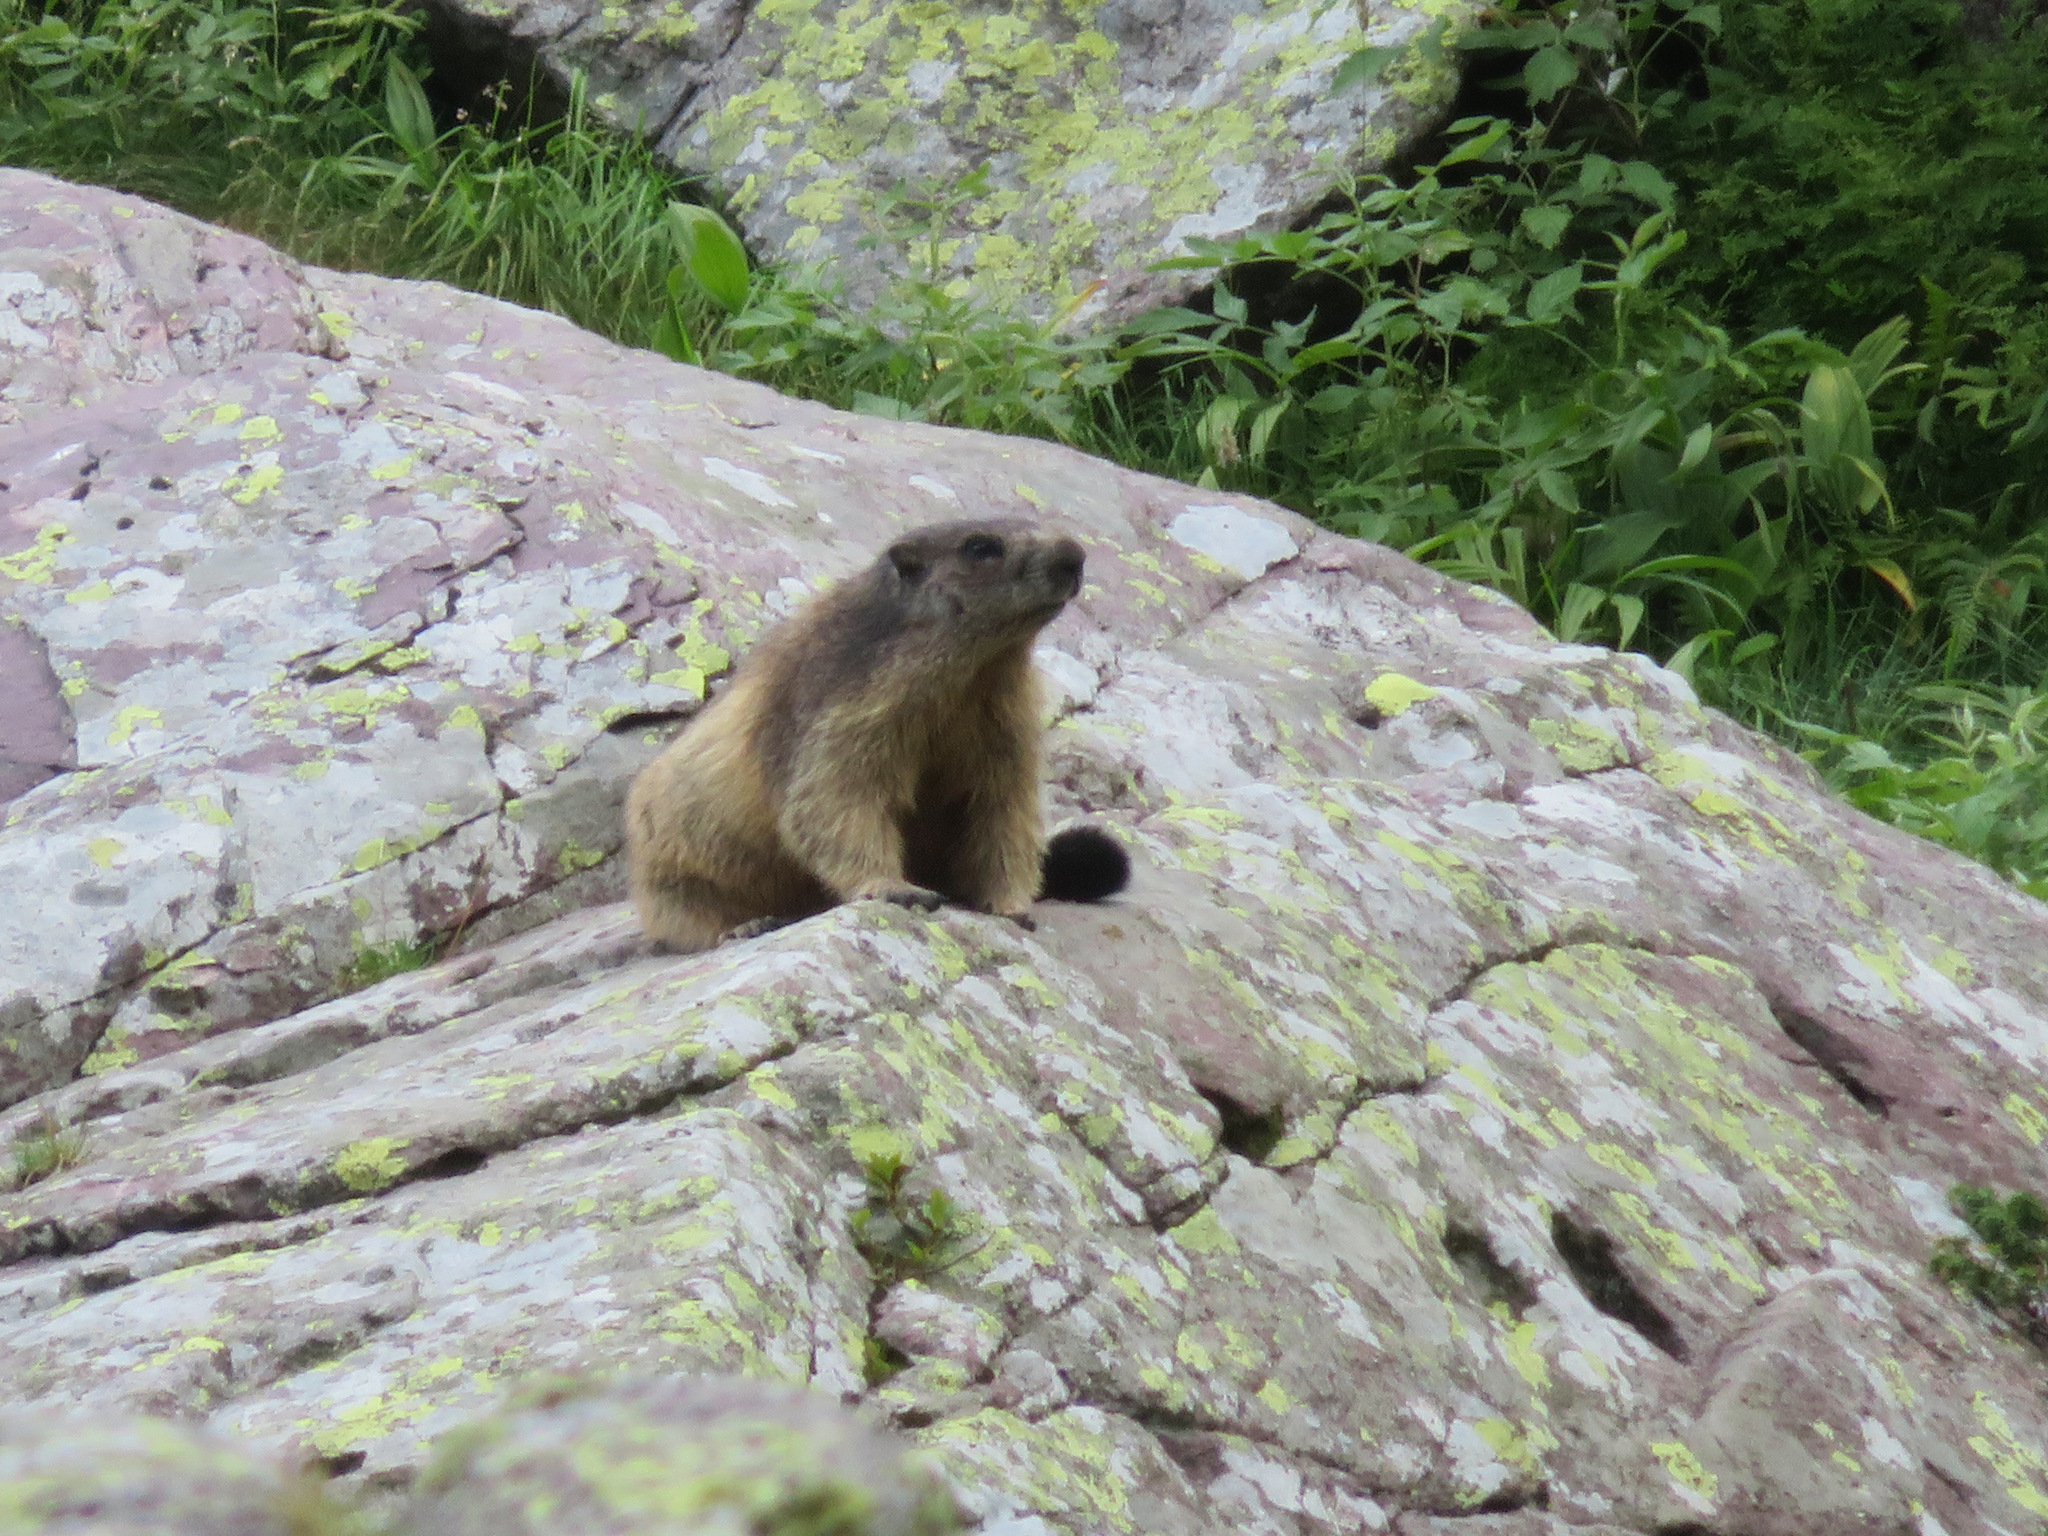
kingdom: Animalia
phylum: Chordata
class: Mammalia
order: Rodentia
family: Sciuridae
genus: Marmota
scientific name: Marmota marmota
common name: Alpine marmot
